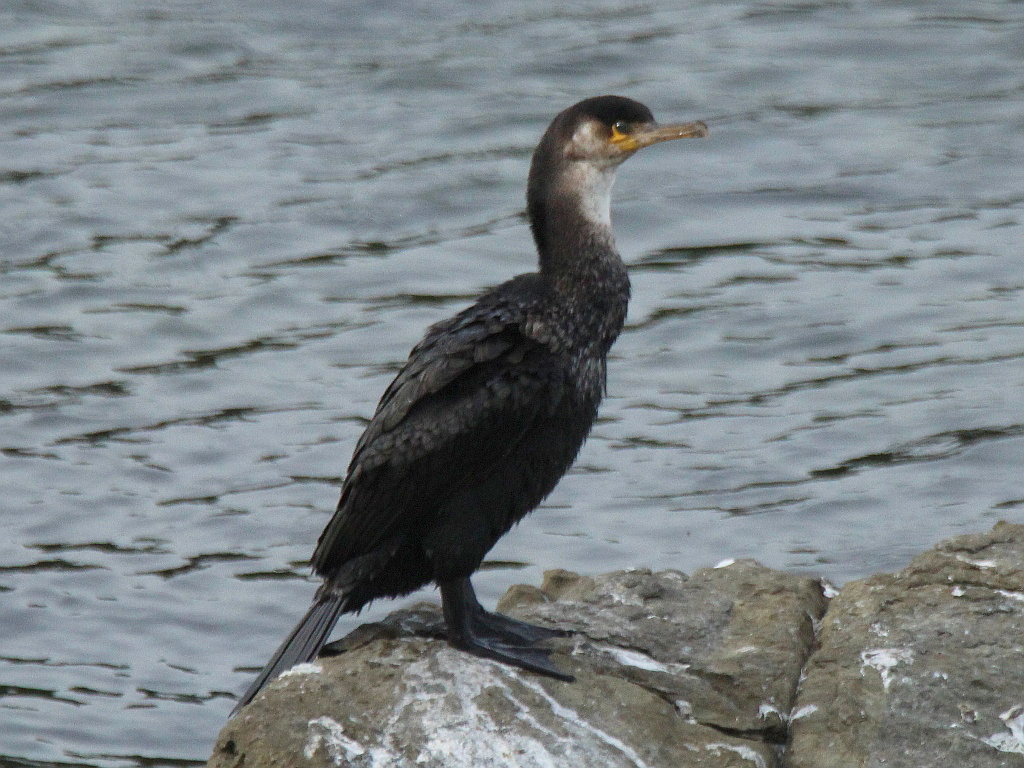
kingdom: Animalia
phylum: Chordata
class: Aves
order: Suliformes
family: Phalacrocoracidae
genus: Phalacrocorax
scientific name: Phalacrocorax capillatus
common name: Japanese cormorant
